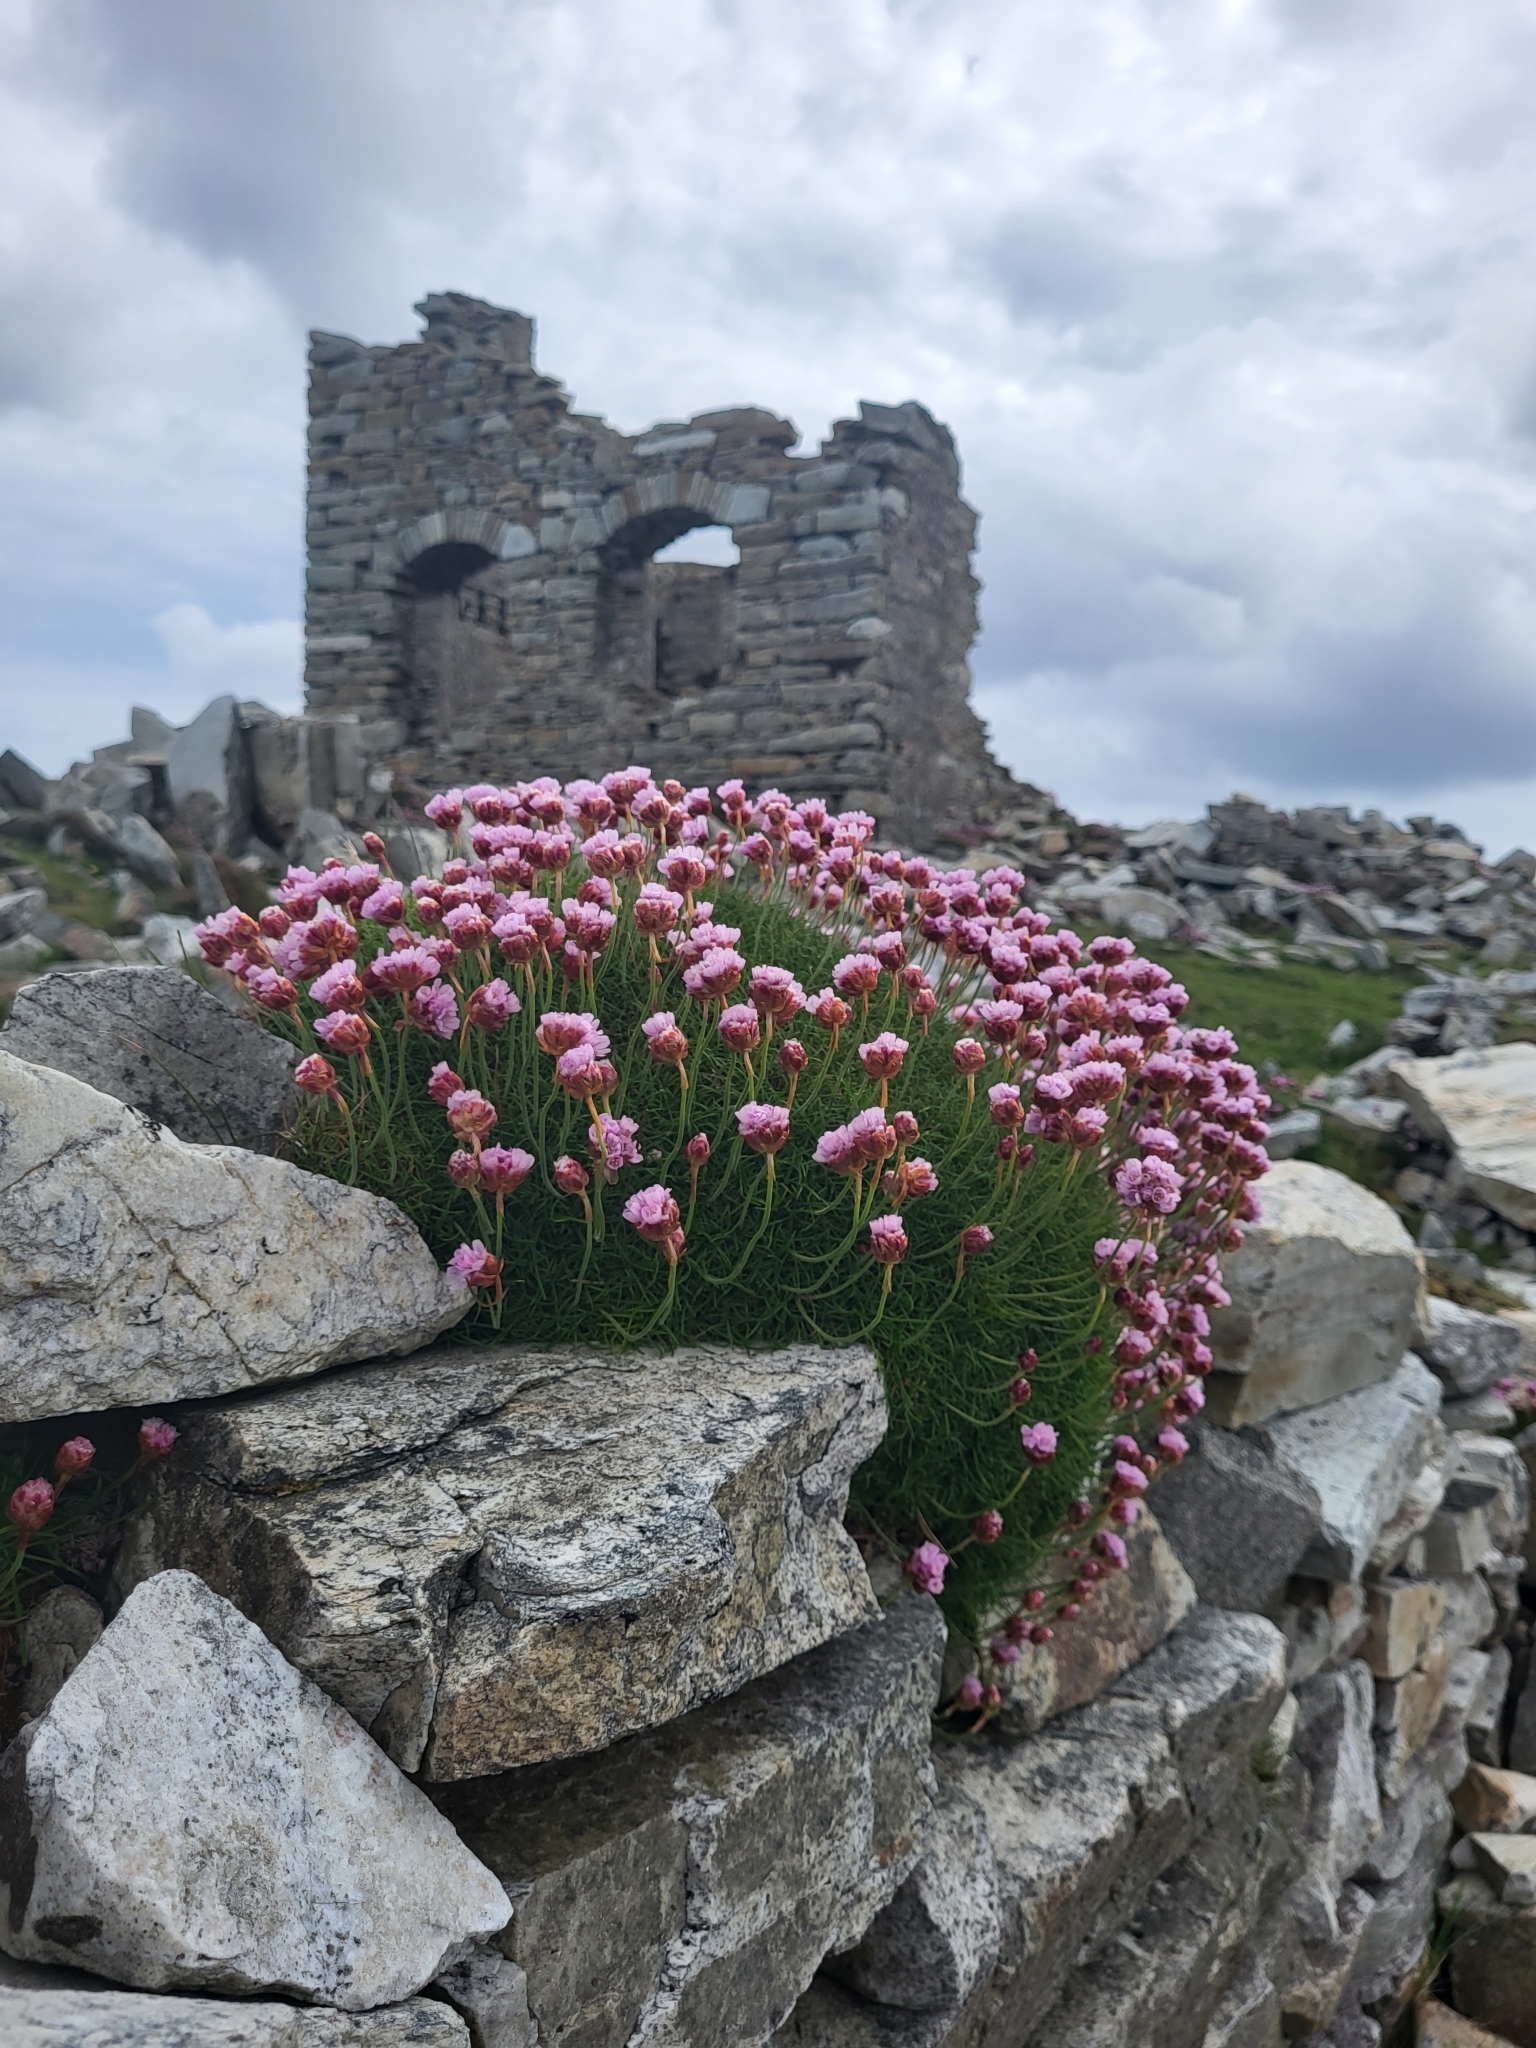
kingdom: Plantae
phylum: Tracheophyta
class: Magnoliopsida
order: Caryophyllales
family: Plumbaginaceae
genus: Armeria
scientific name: Armeria maritima
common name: Thrift
